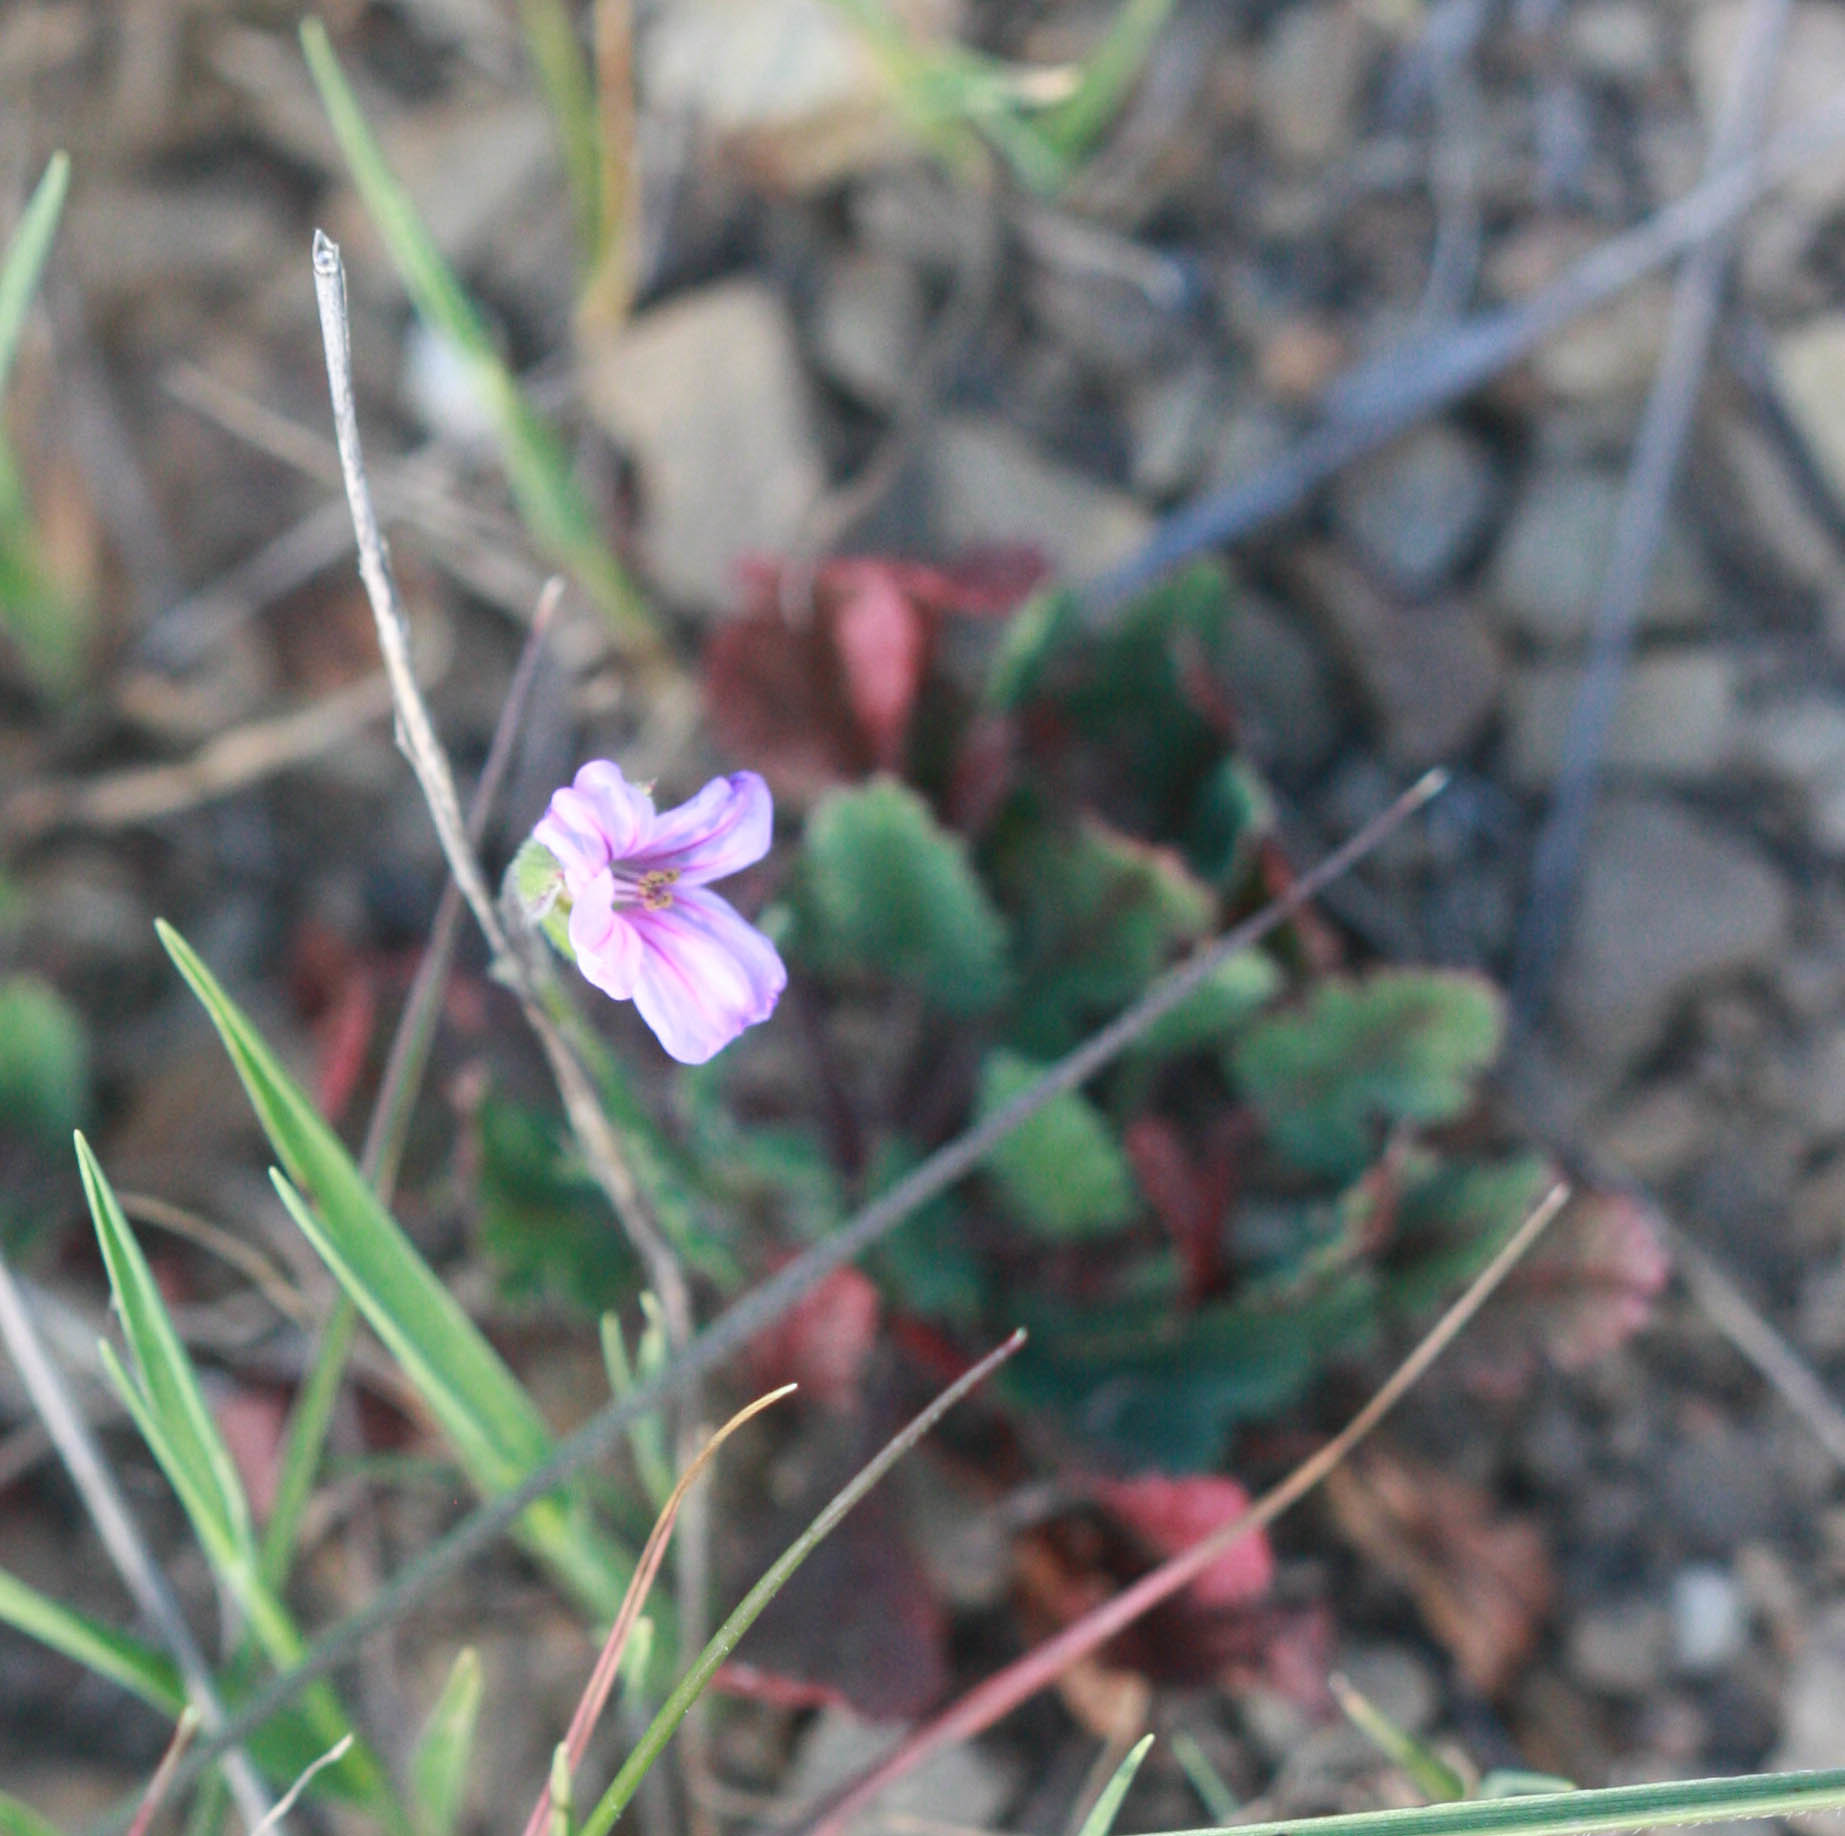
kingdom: Plantae
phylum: Tracheophyta
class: Magnoliopsida
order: Geraniales
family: Geraniaceae
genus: Erodium
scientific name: Erodium botrys
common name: Mediterranean stork's-bill
